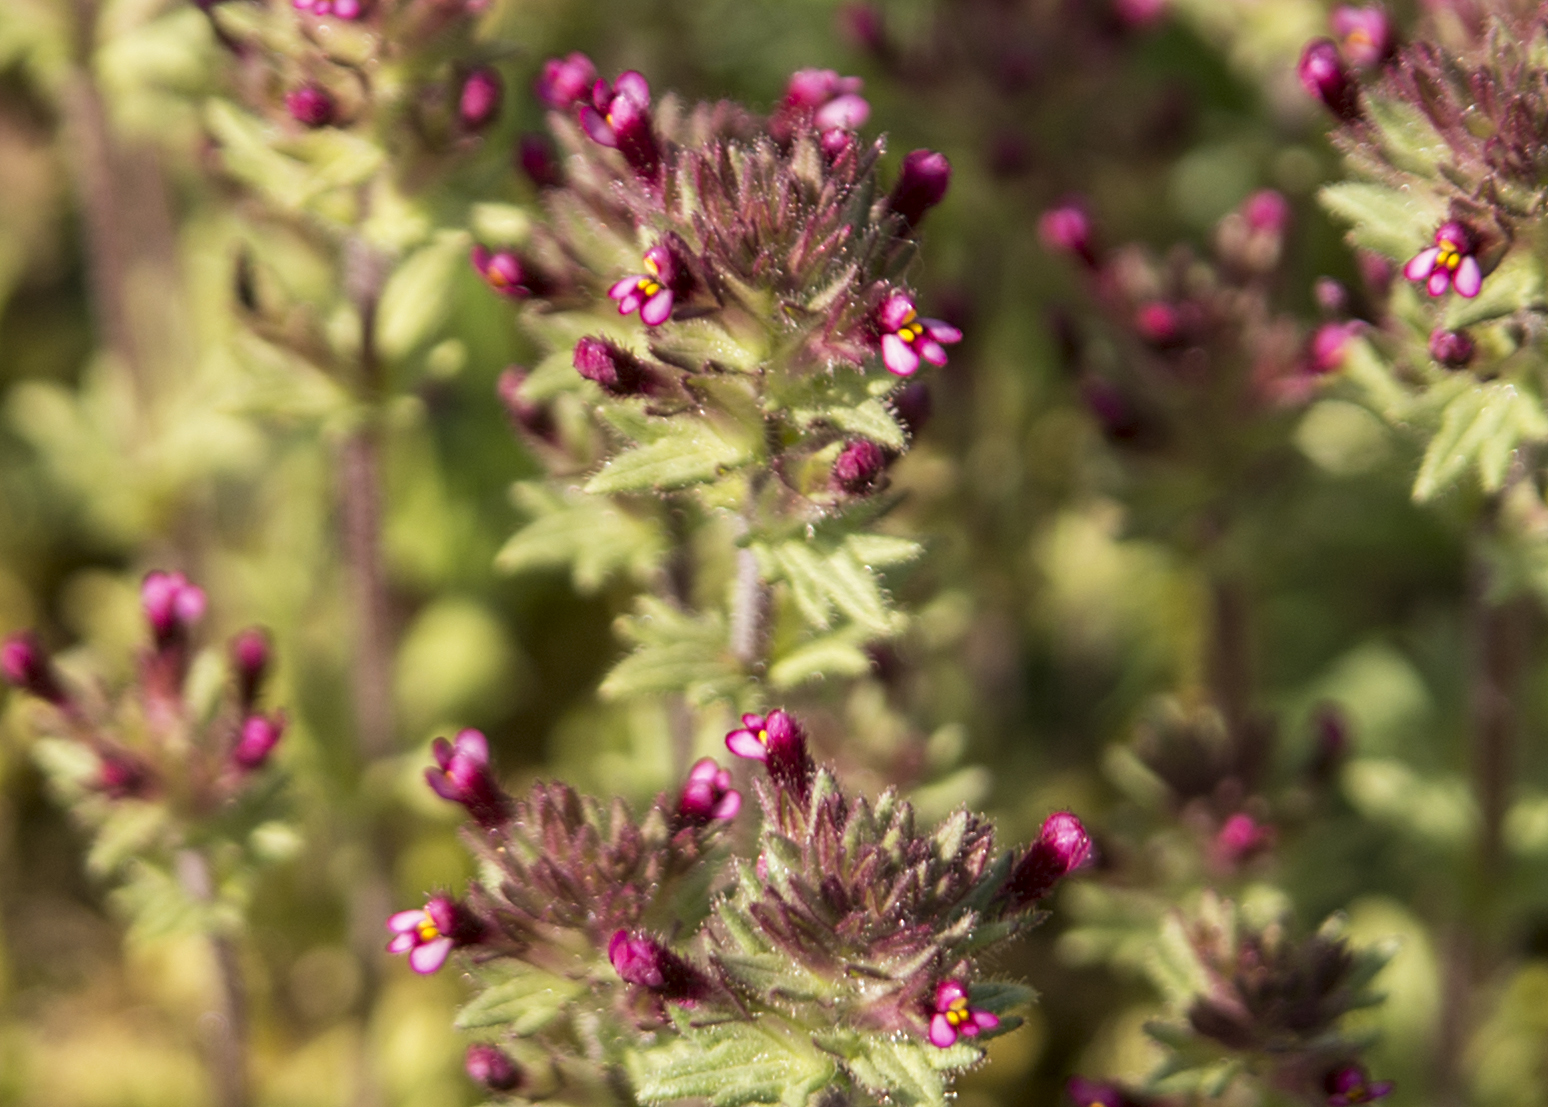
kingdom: Plantae
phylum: Tracheophyta
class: Magnoliopsida
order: Lamiales
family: Orobanchaceae
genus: Parentucellia
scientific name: Parentucellia latifolia
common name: Broadleaf glandweed
